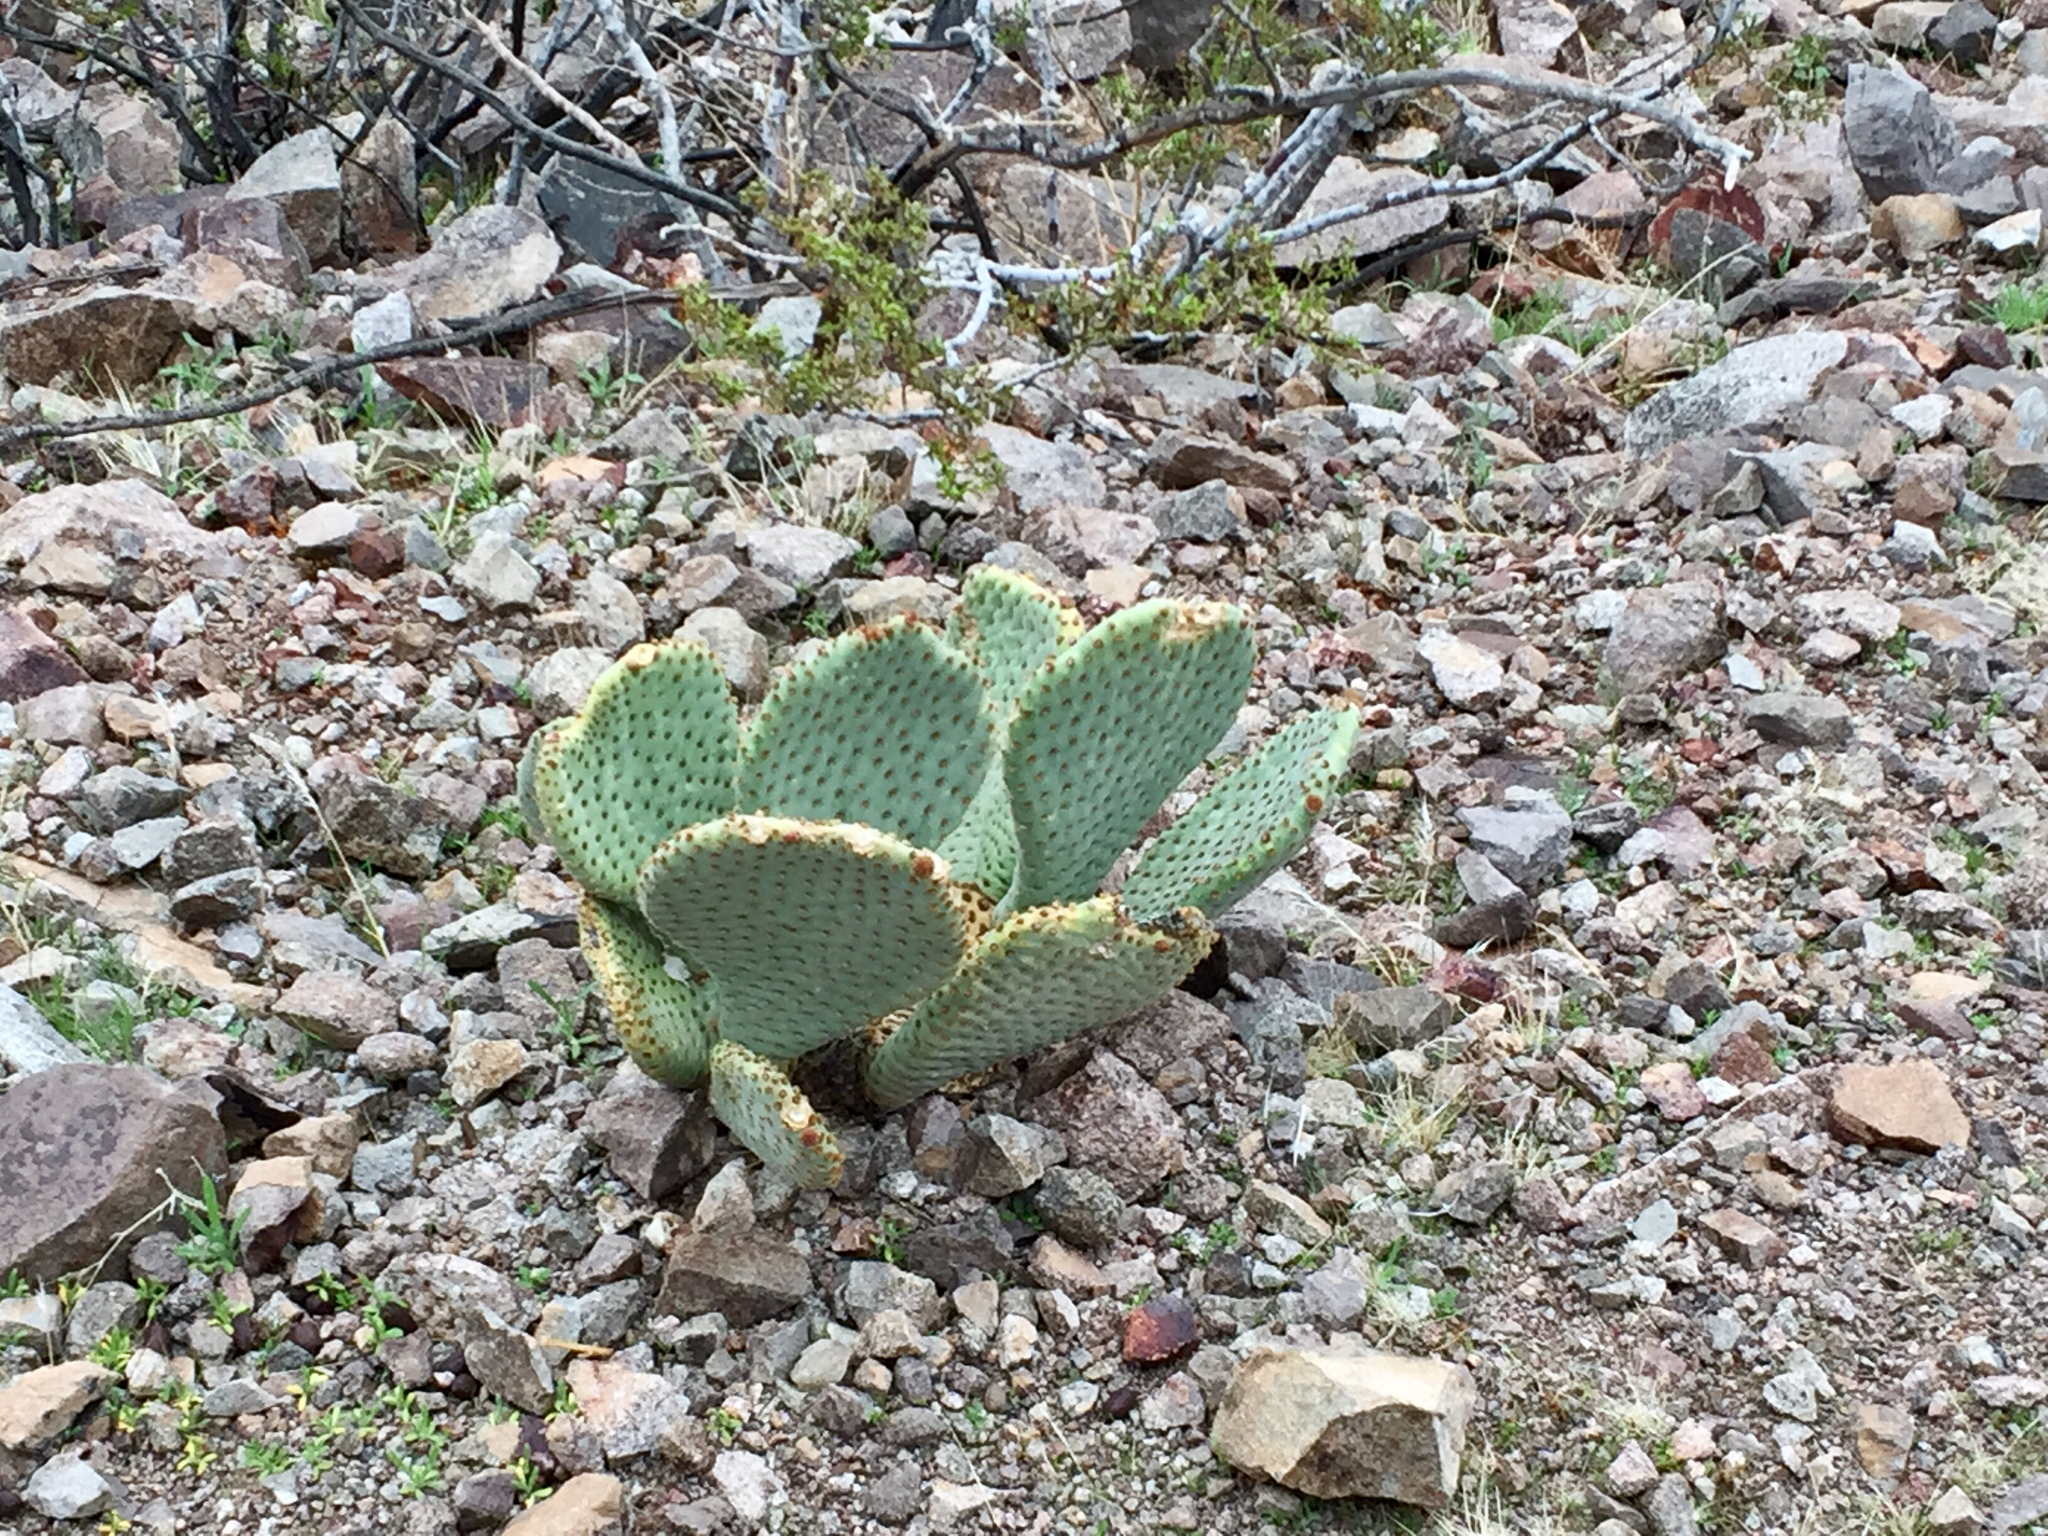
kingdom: Plantae
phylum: Tracheophyta
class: Magnoliopsida
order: Caryophyllales
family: Cactaceae
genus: Opuntia
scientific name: Opuntia basilaris
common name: Beavertail prickly-pear
